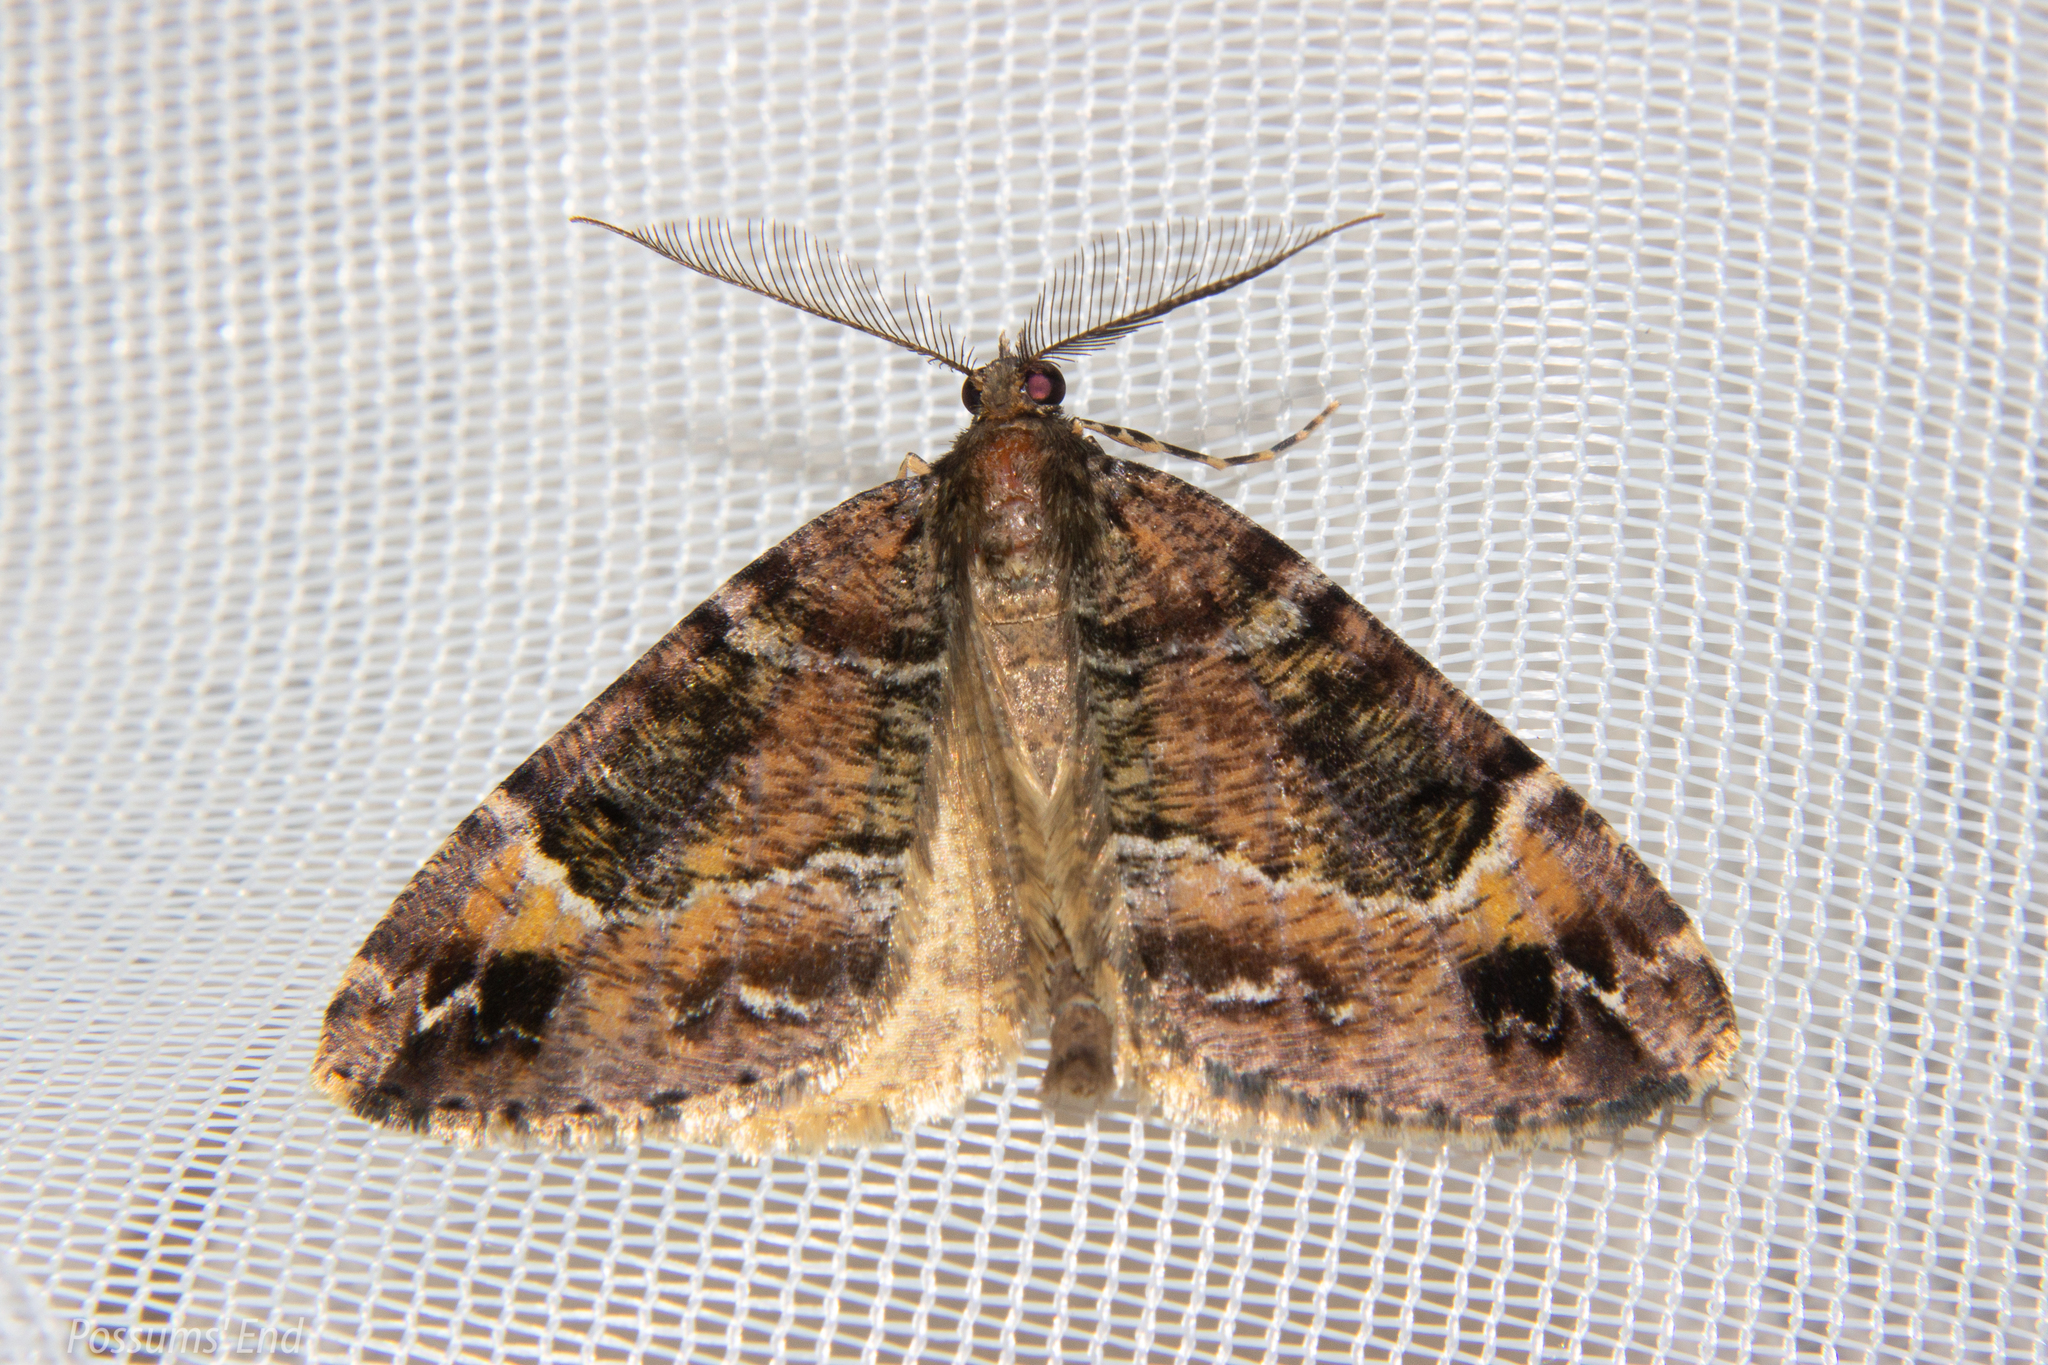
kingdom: Animalia
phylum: Arthropoda
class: Insecta
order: Lepidoptera
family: Geometridae
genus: Pseudocoremia
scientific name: Pseudocoremia productata
